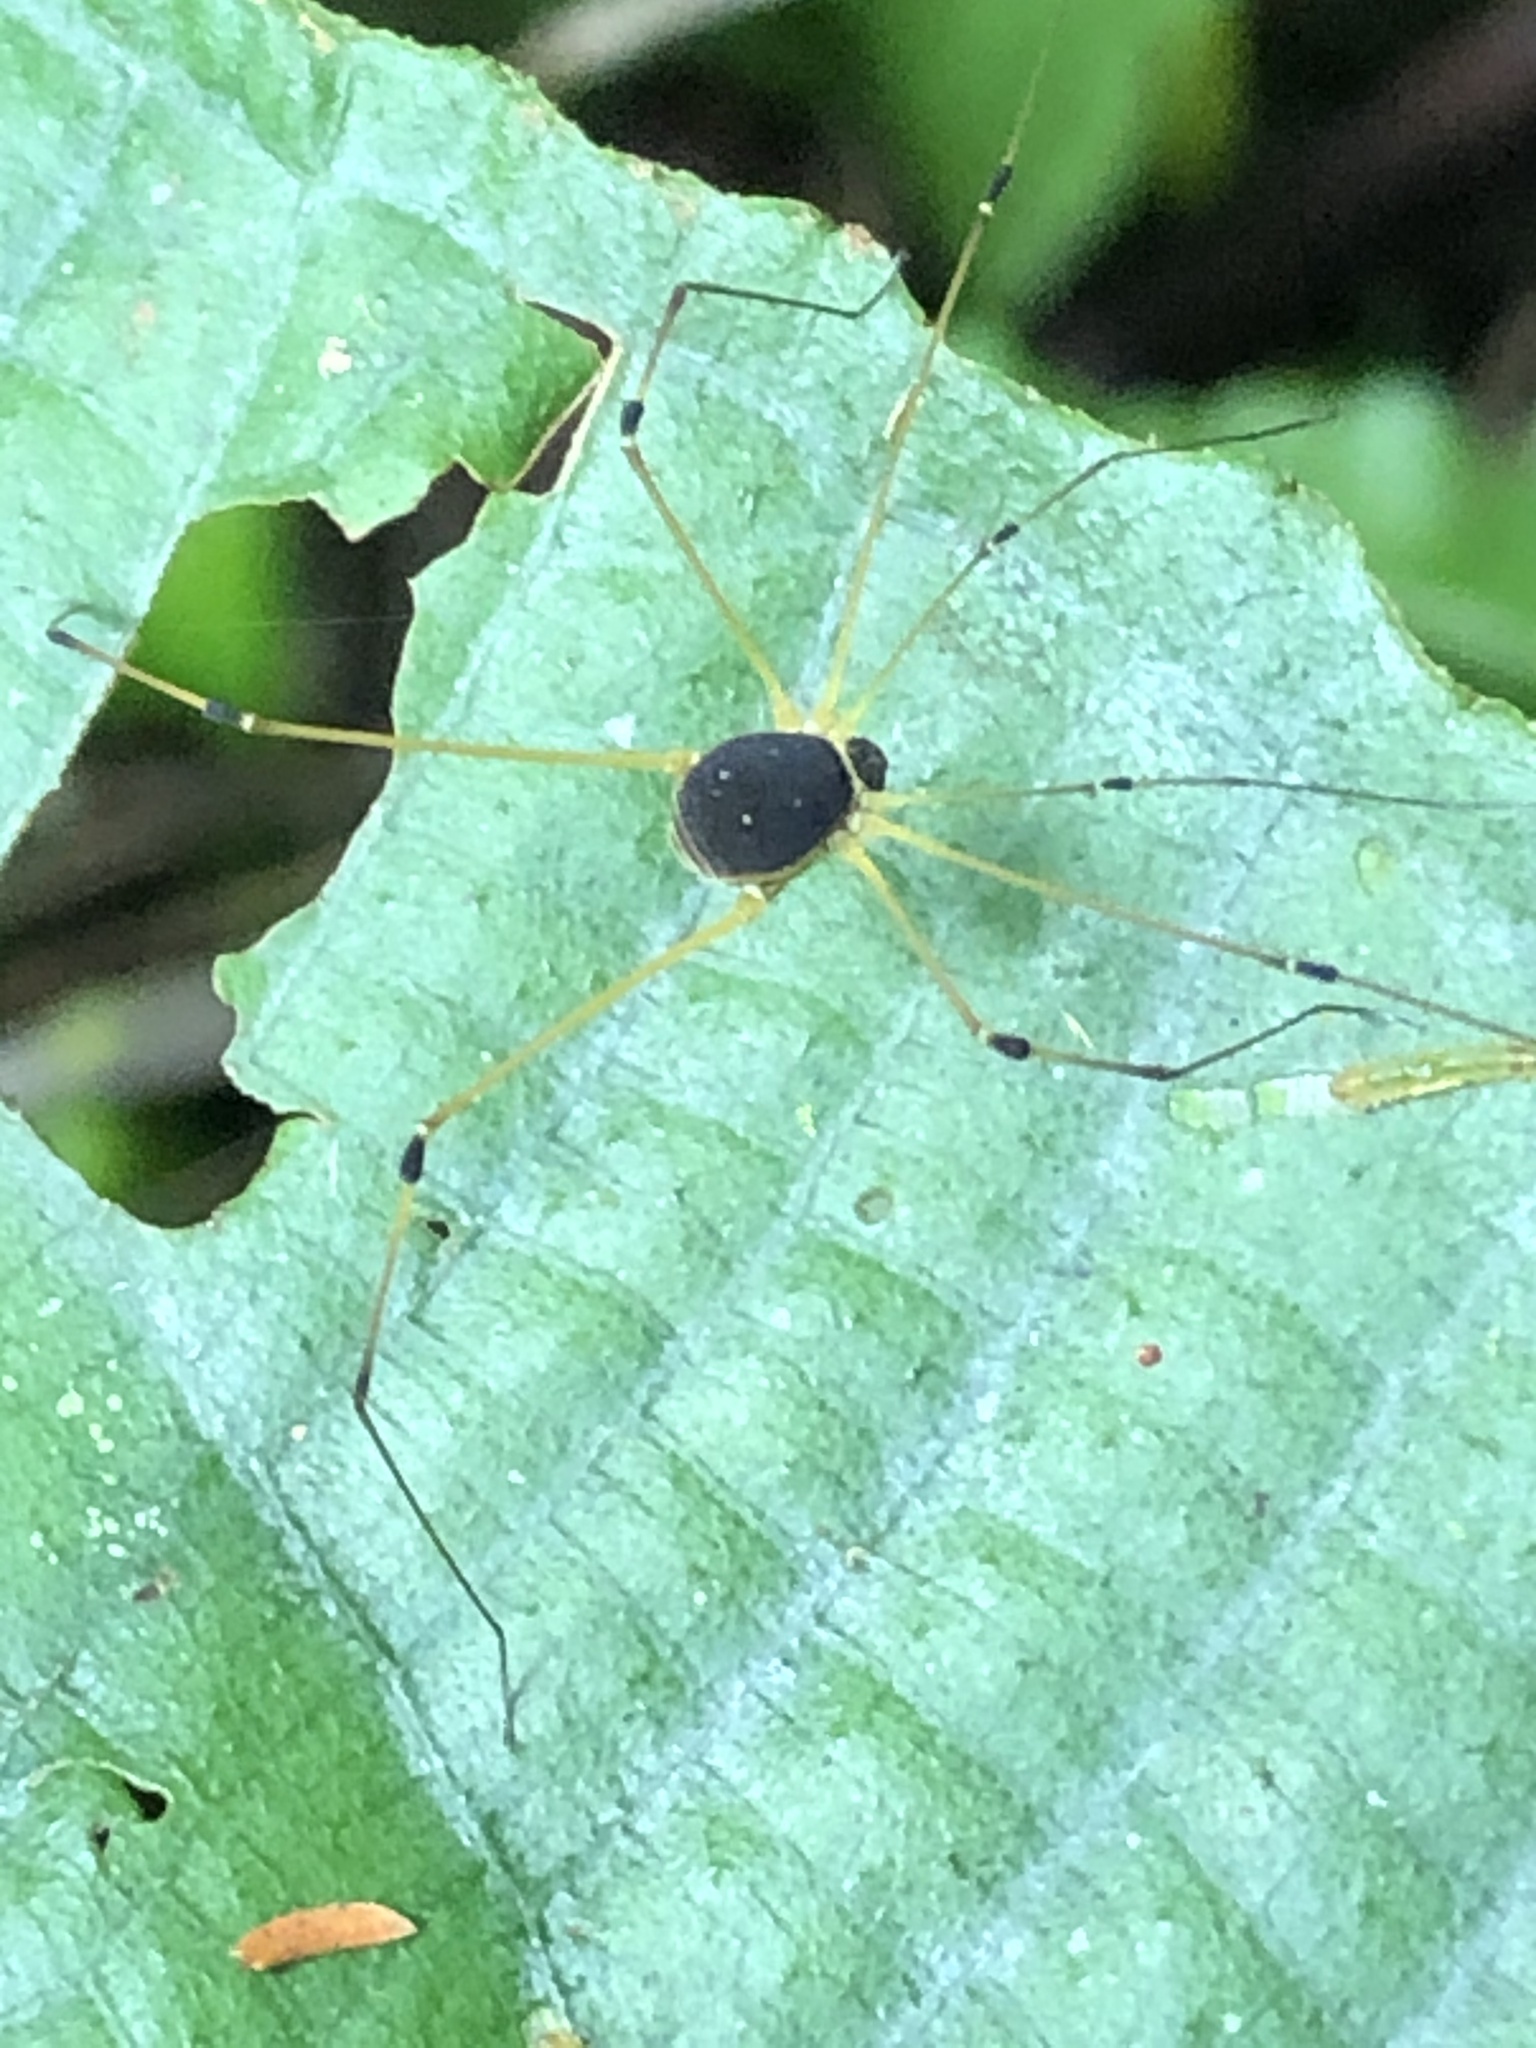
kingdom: Animalia
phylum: Arthropoda
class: Arachnida
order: Opiliones
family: Cosmetidae
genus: Protus
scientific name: Protus bolivari
